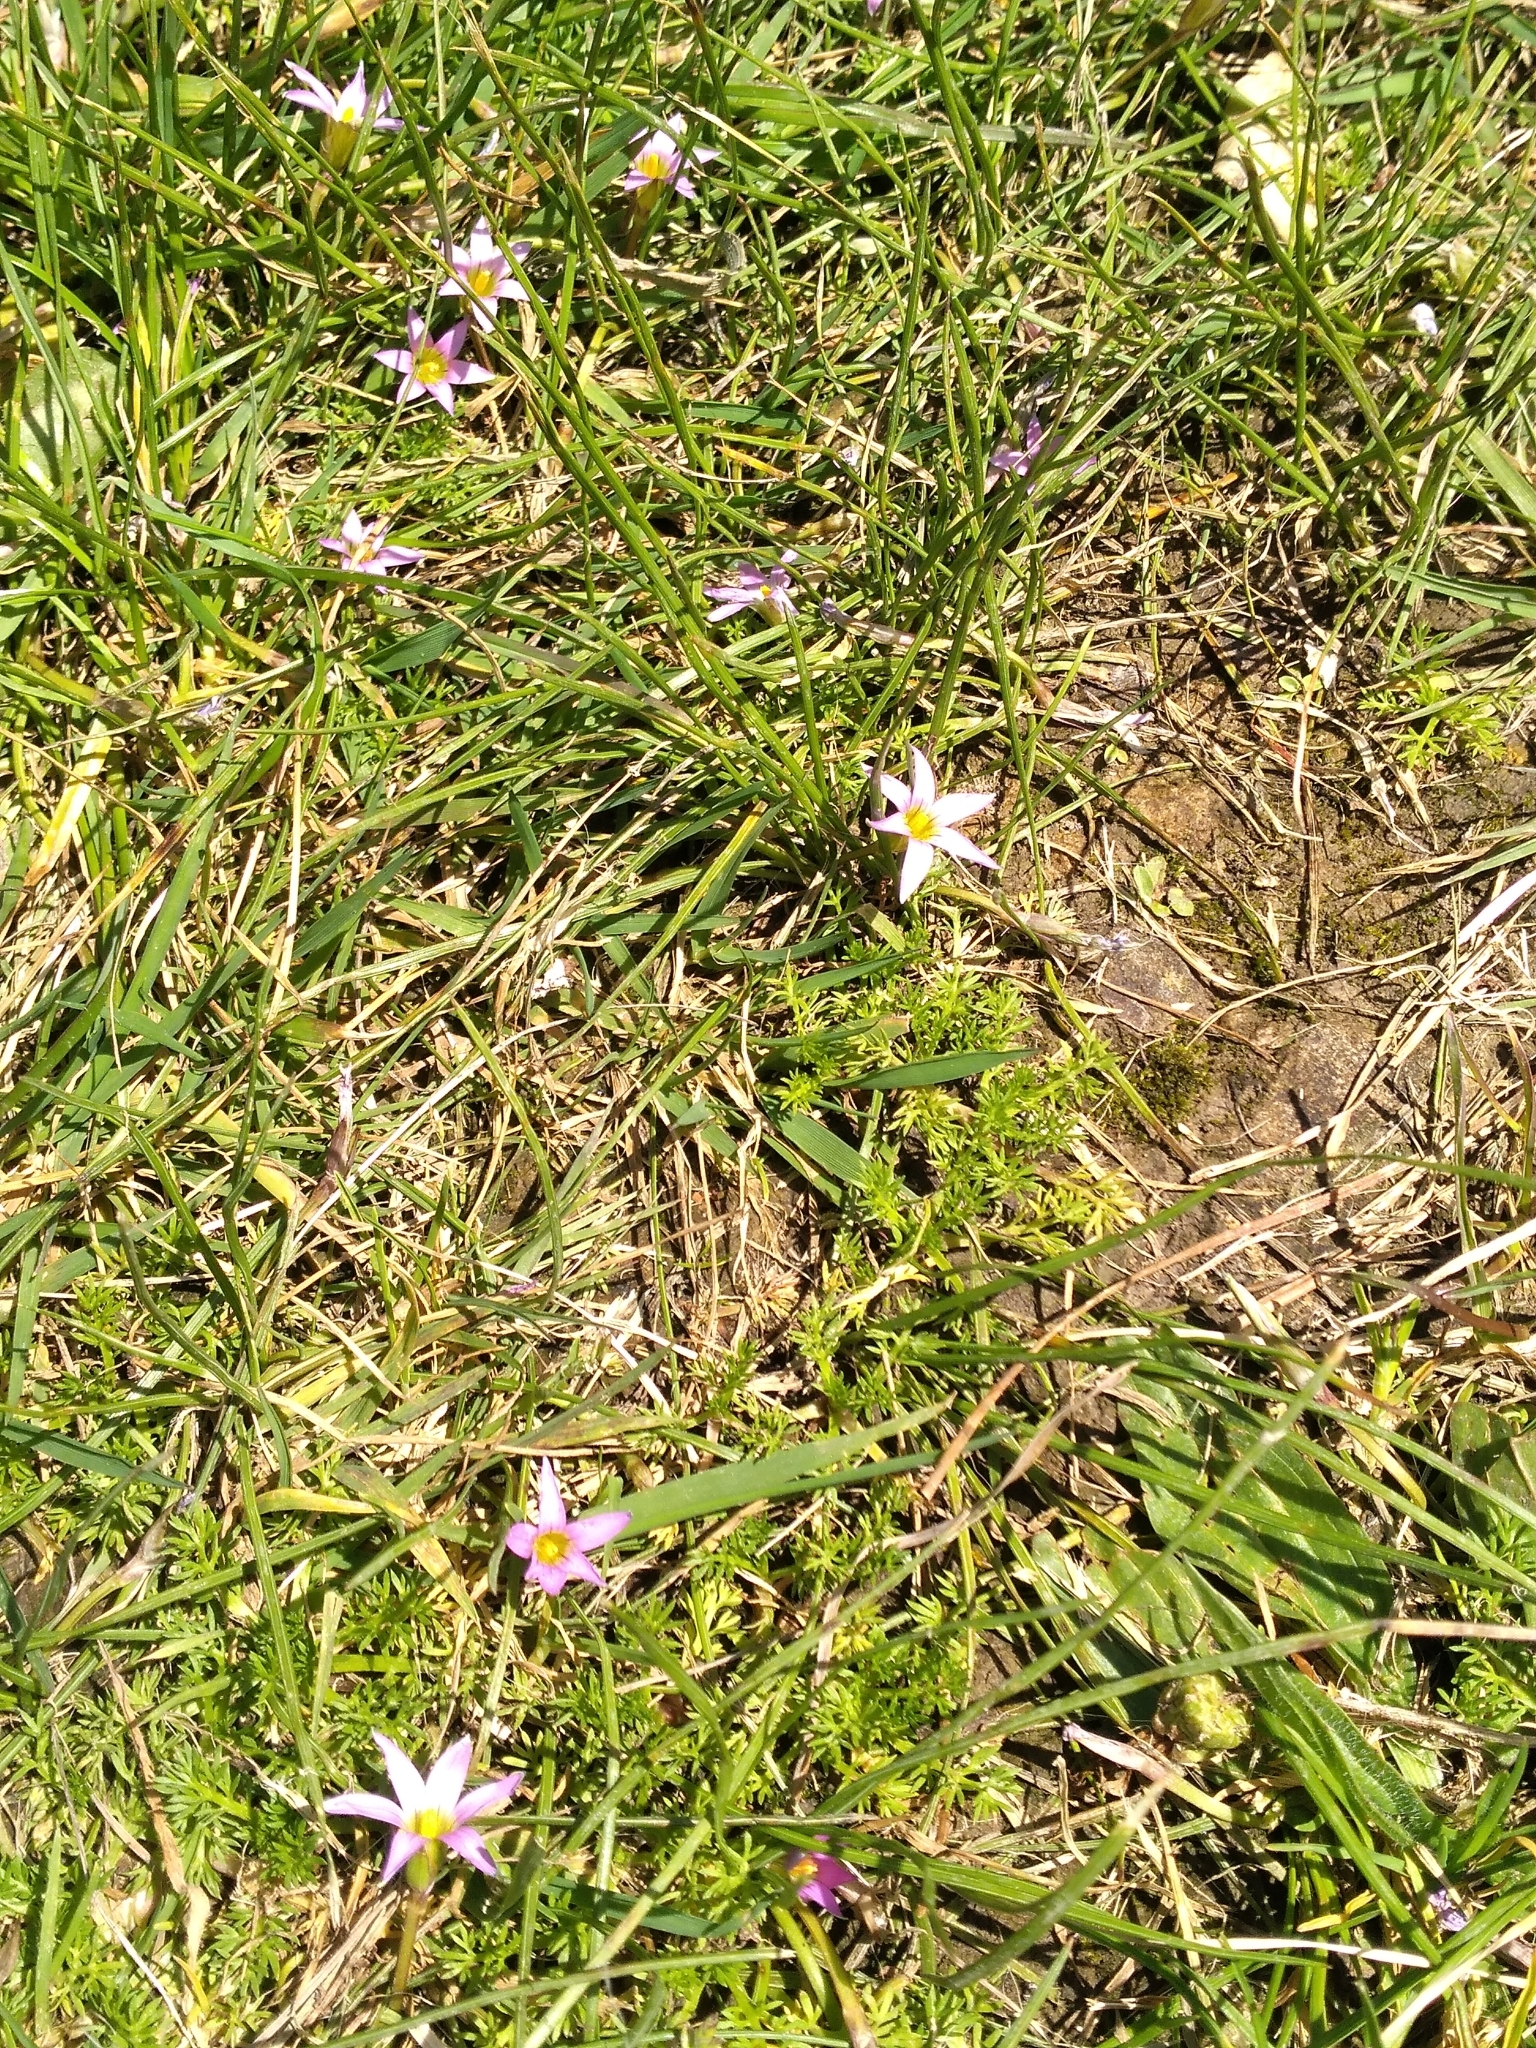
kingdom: Plantae
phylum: Tracheophyta
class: Liliopsida
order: Asparagales
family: Iridaceae
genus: Romulea
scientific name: Romulea rosea
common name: Oniongrass
